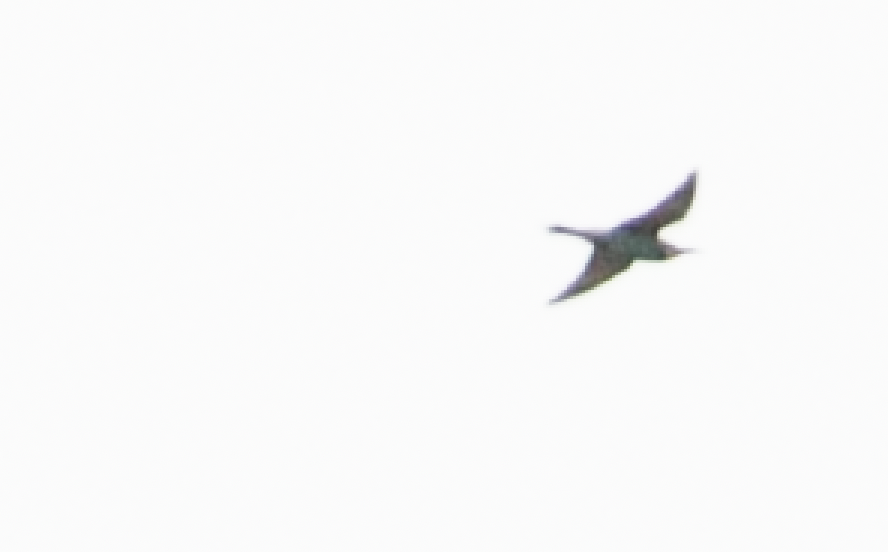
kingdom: Animalia
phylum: Chordata
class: Aves
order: Coraciiformes
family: Meropidae
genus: Merops
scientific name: Merops apiaster
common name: European bee-eater
